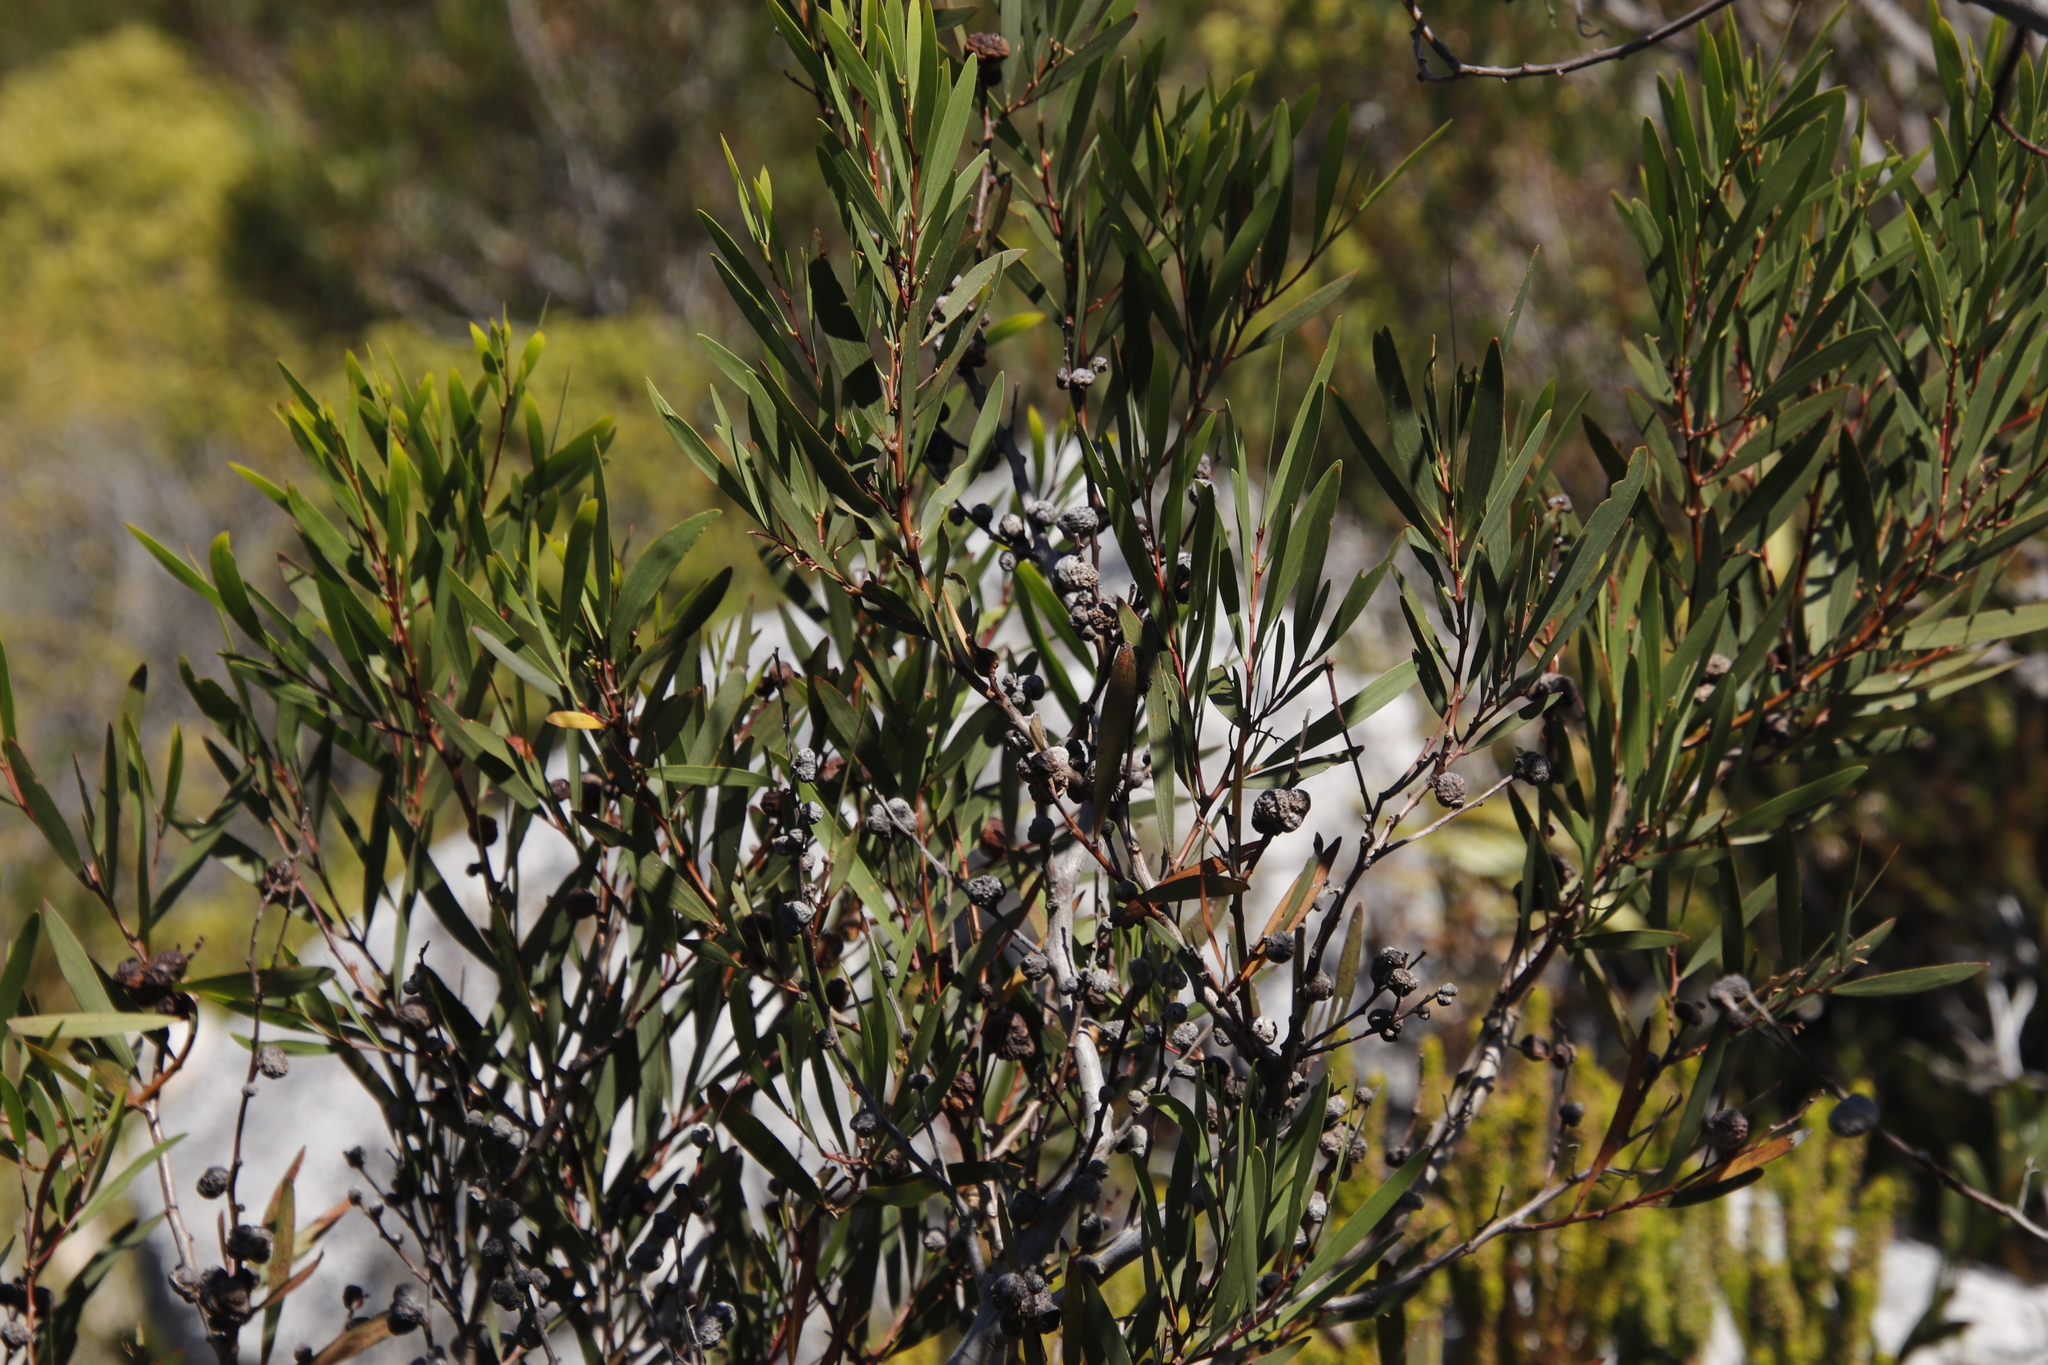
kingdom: Plantae
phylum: Tracheophyta
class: Magnoliopsida
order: Fabales
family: Fabaceae
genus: Acacia
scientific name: Acacia longifolia
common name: Sydney golden wattle
